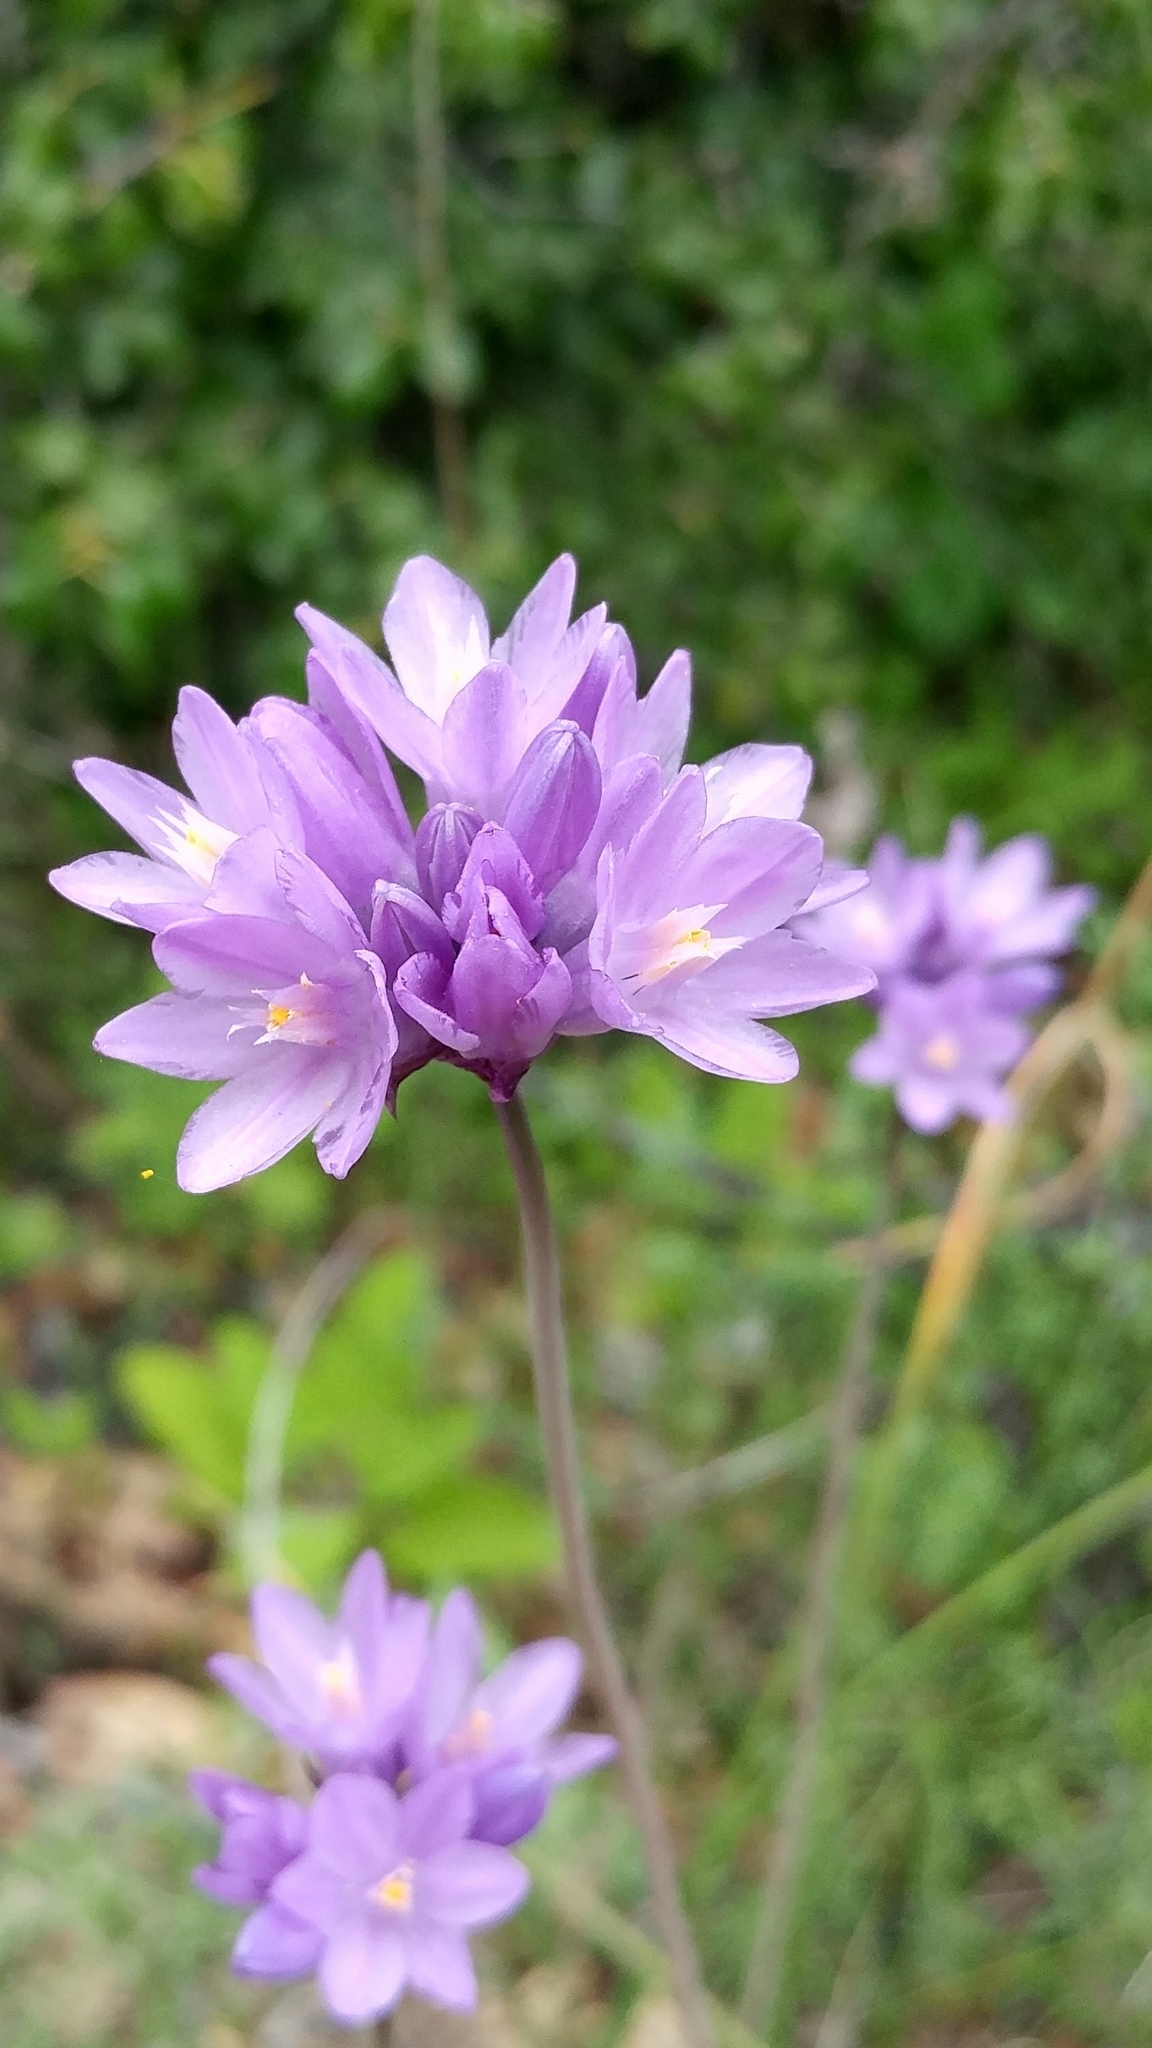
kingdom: Plantae
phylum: Tracheophyta
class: Liliopsida
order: Asparagales
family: Asparagaceae
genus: Dipterostemon
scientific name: Dipterostemon capitatus
